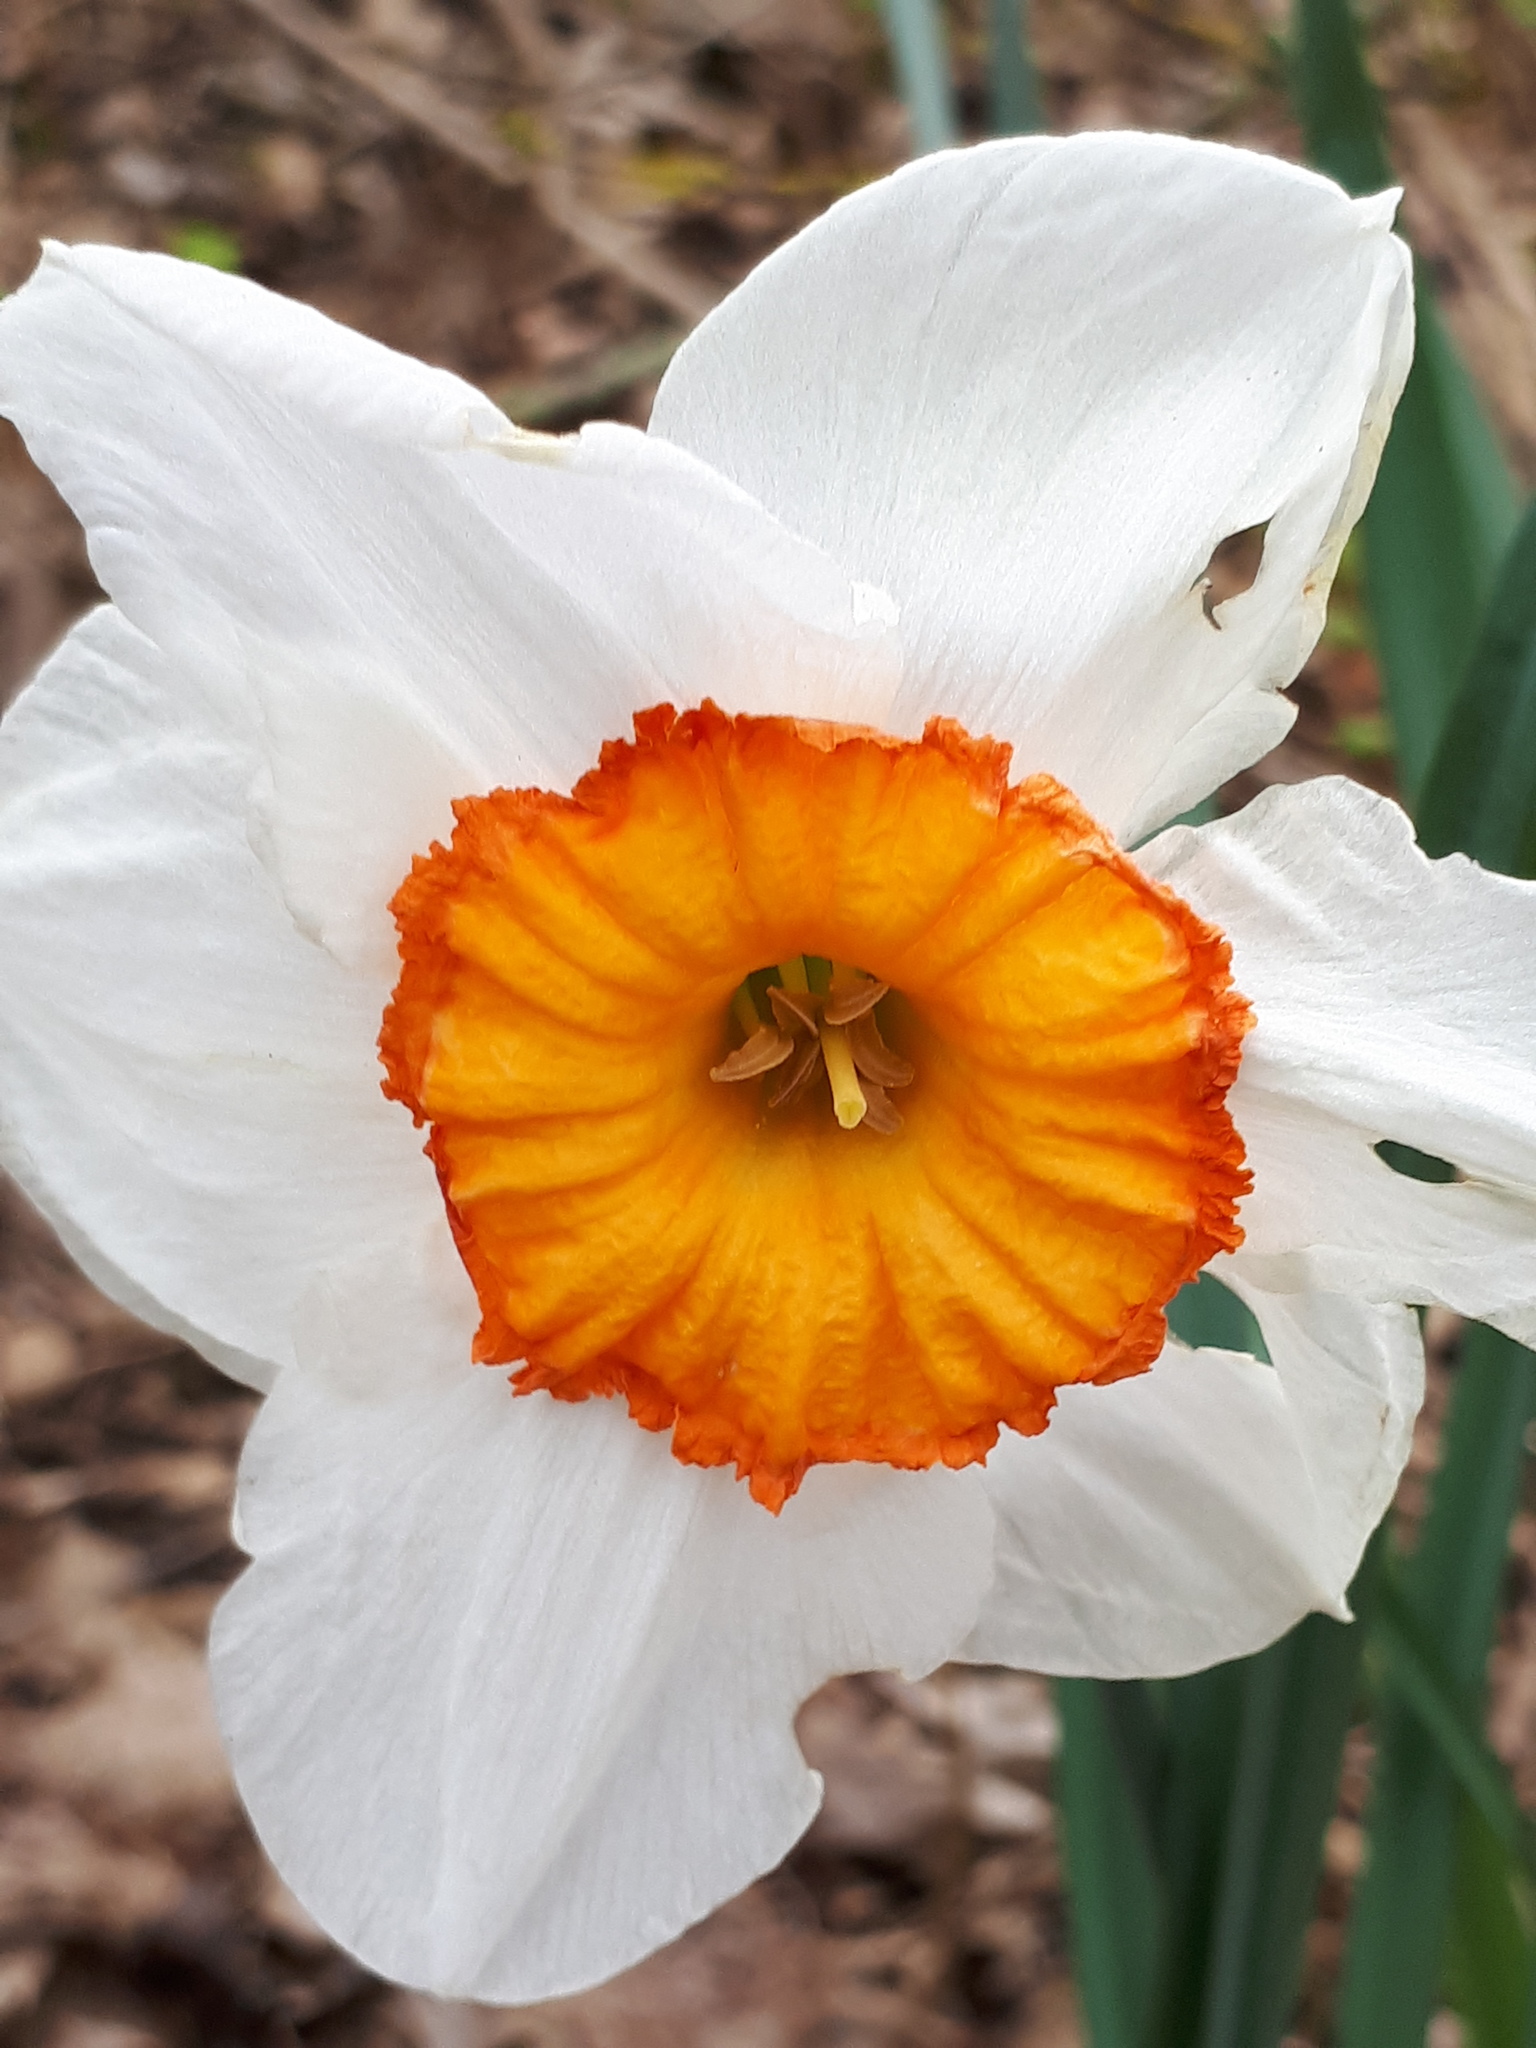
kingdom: Plantae
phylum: Tracheophyta
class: Liliopsida
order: Asparagales
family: Amaryllidaceae
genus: Narcissus
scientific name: Narcissus incomparabilis
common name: Nonesuch daffodil
